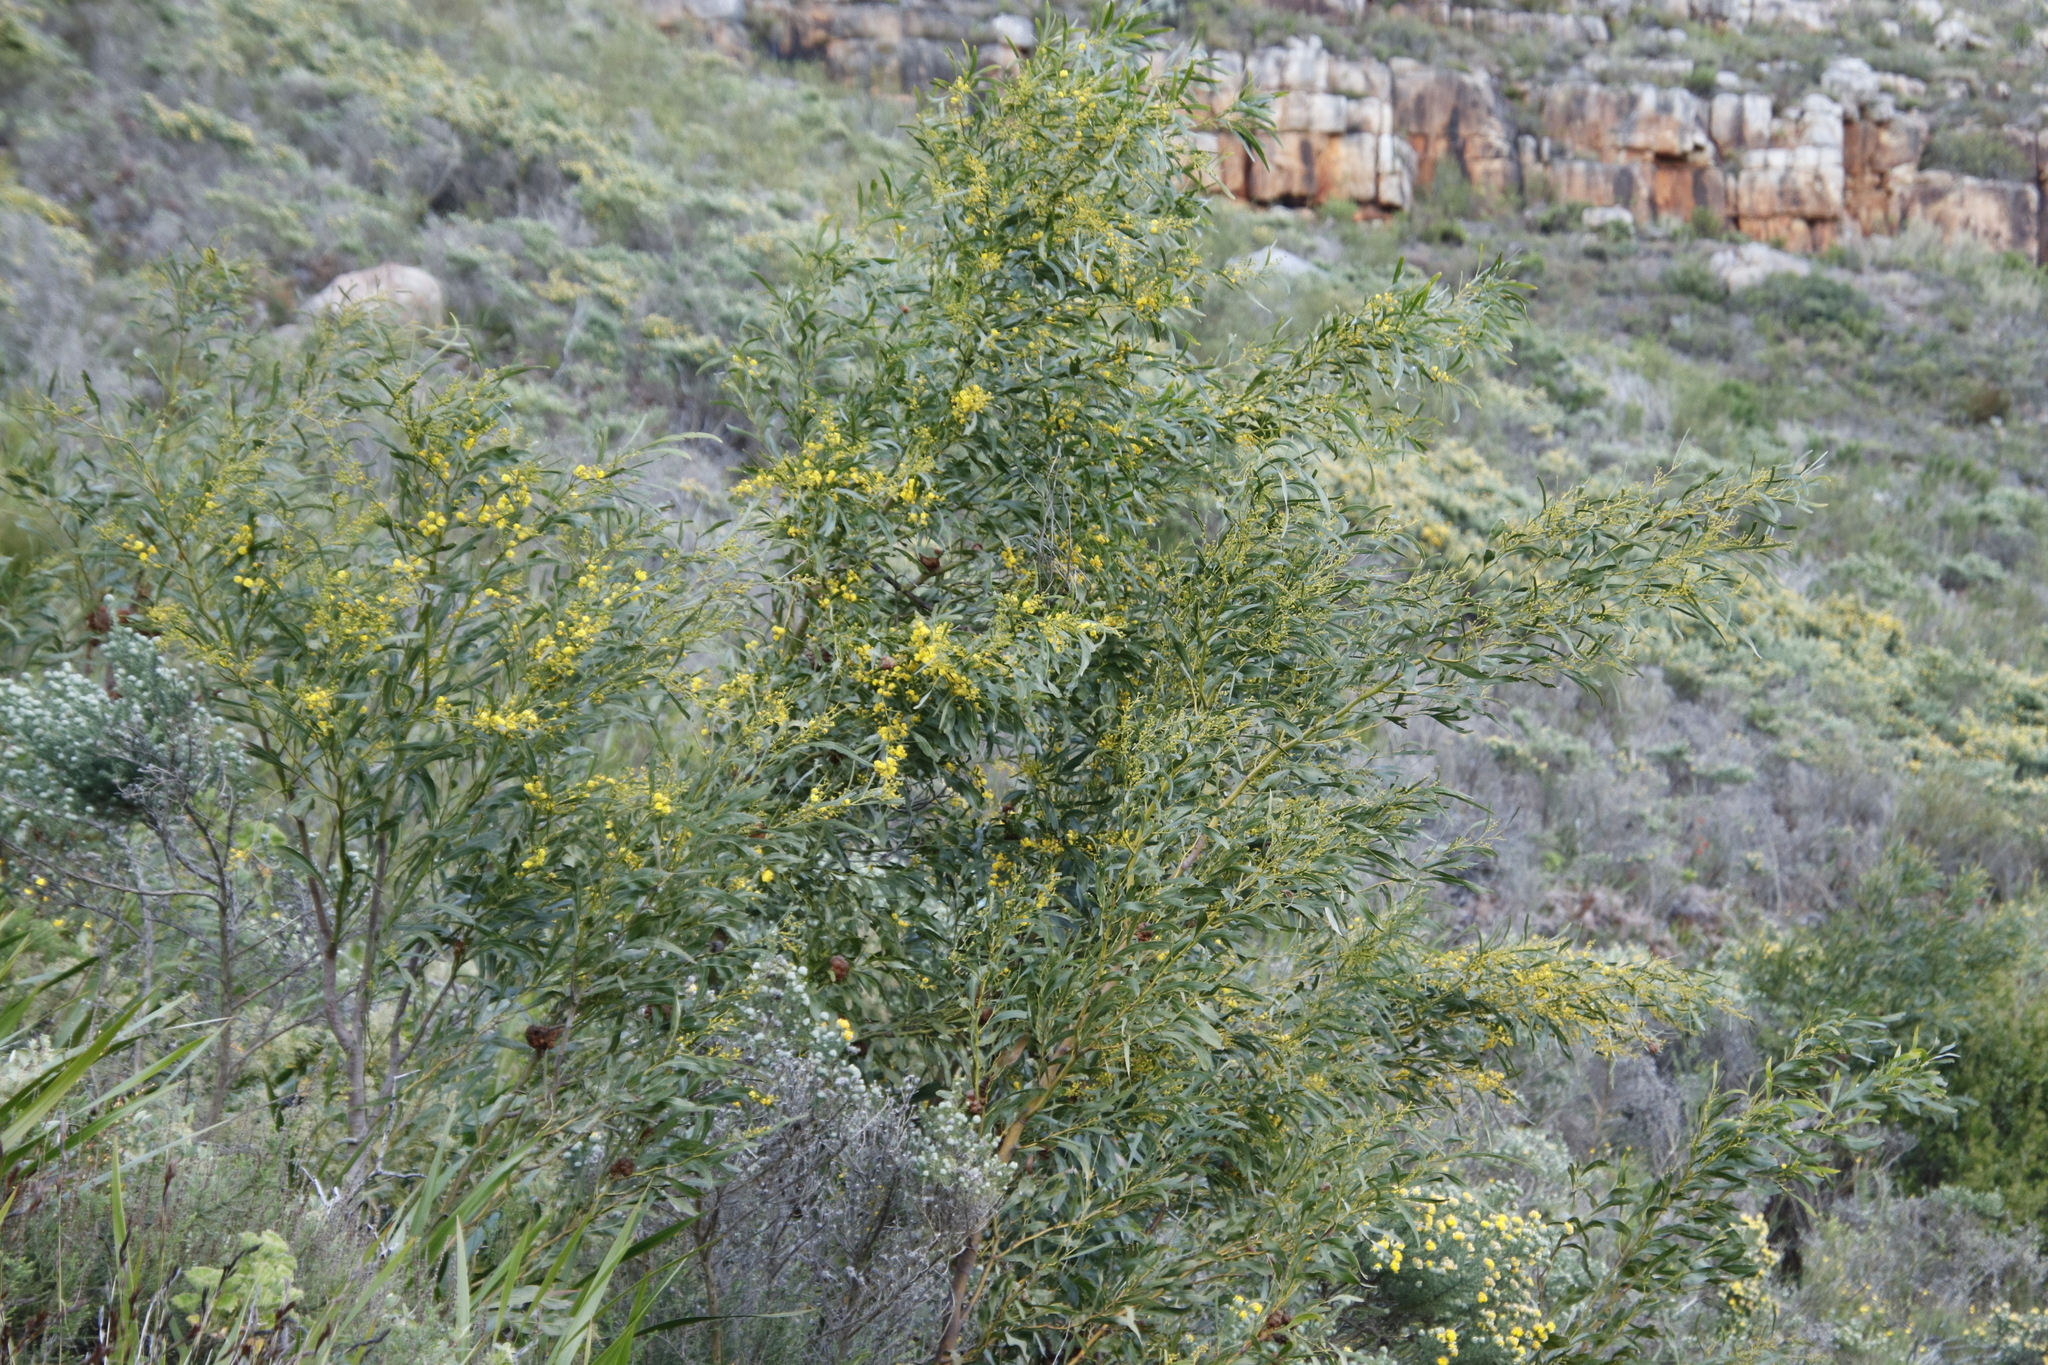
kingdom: Plantae
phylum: Tracheophyta
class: Magnoliopsida
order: Fabales
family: Fabaceae
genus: Acacia
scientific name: Acacia saligna
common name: Orange wattle
